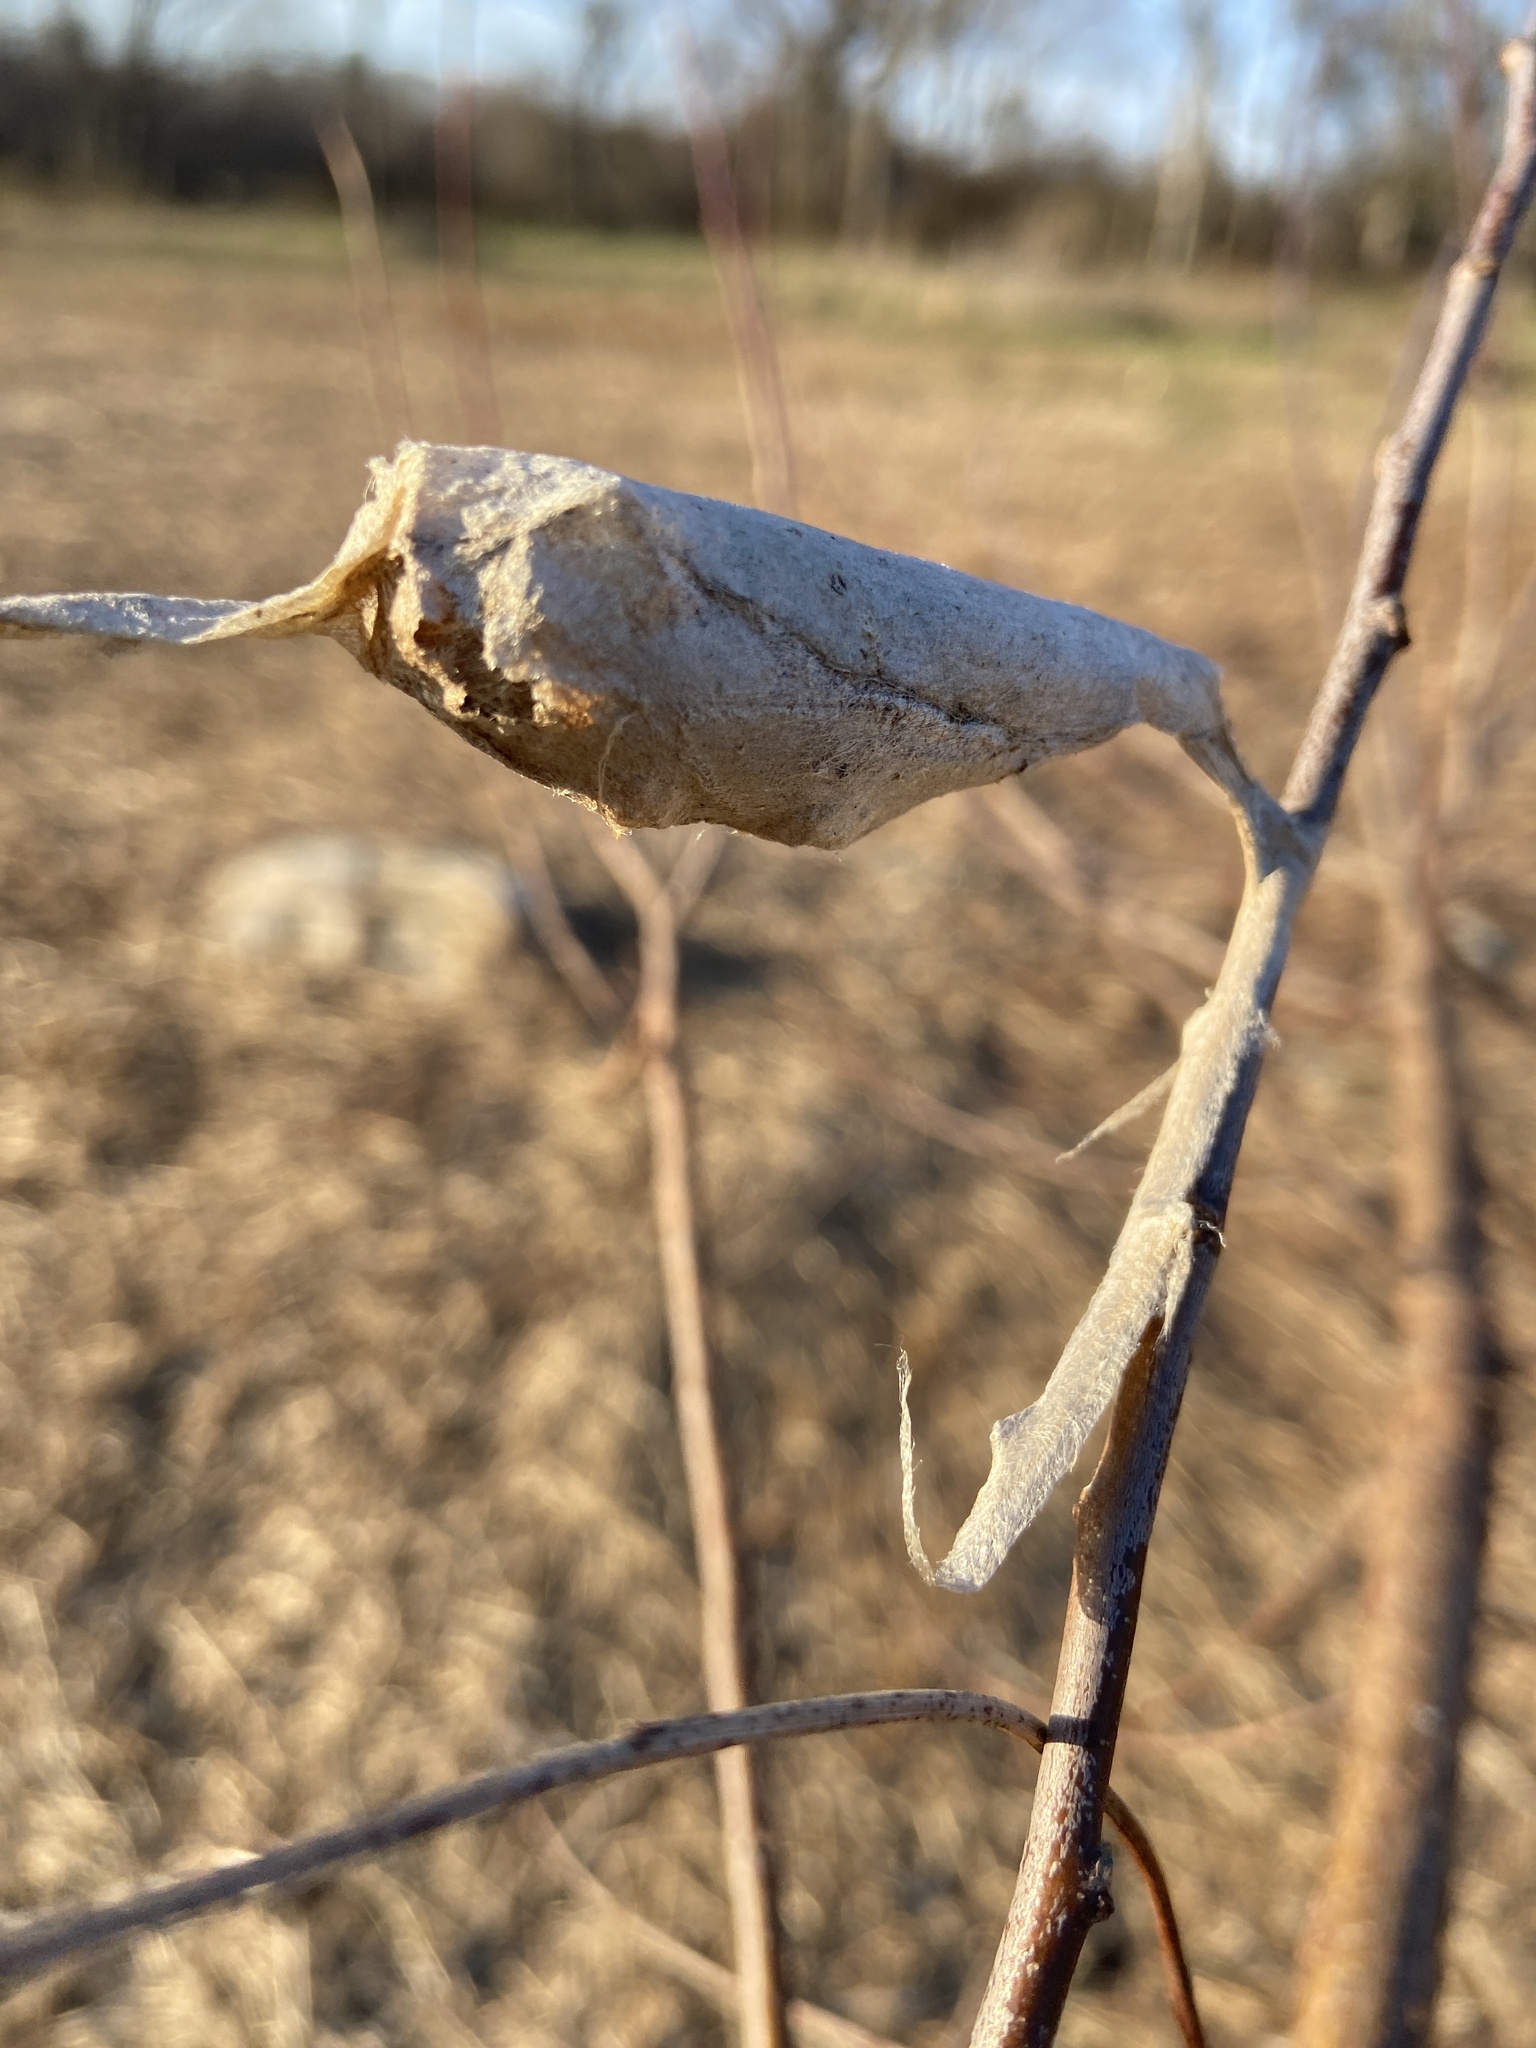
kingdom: Animalia
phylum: Arthropoda
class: Insecta
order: Lepidoptera
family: Saturniidae
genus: Callosamia
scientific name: Callosamia promethea
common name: Promethea silkmoth
